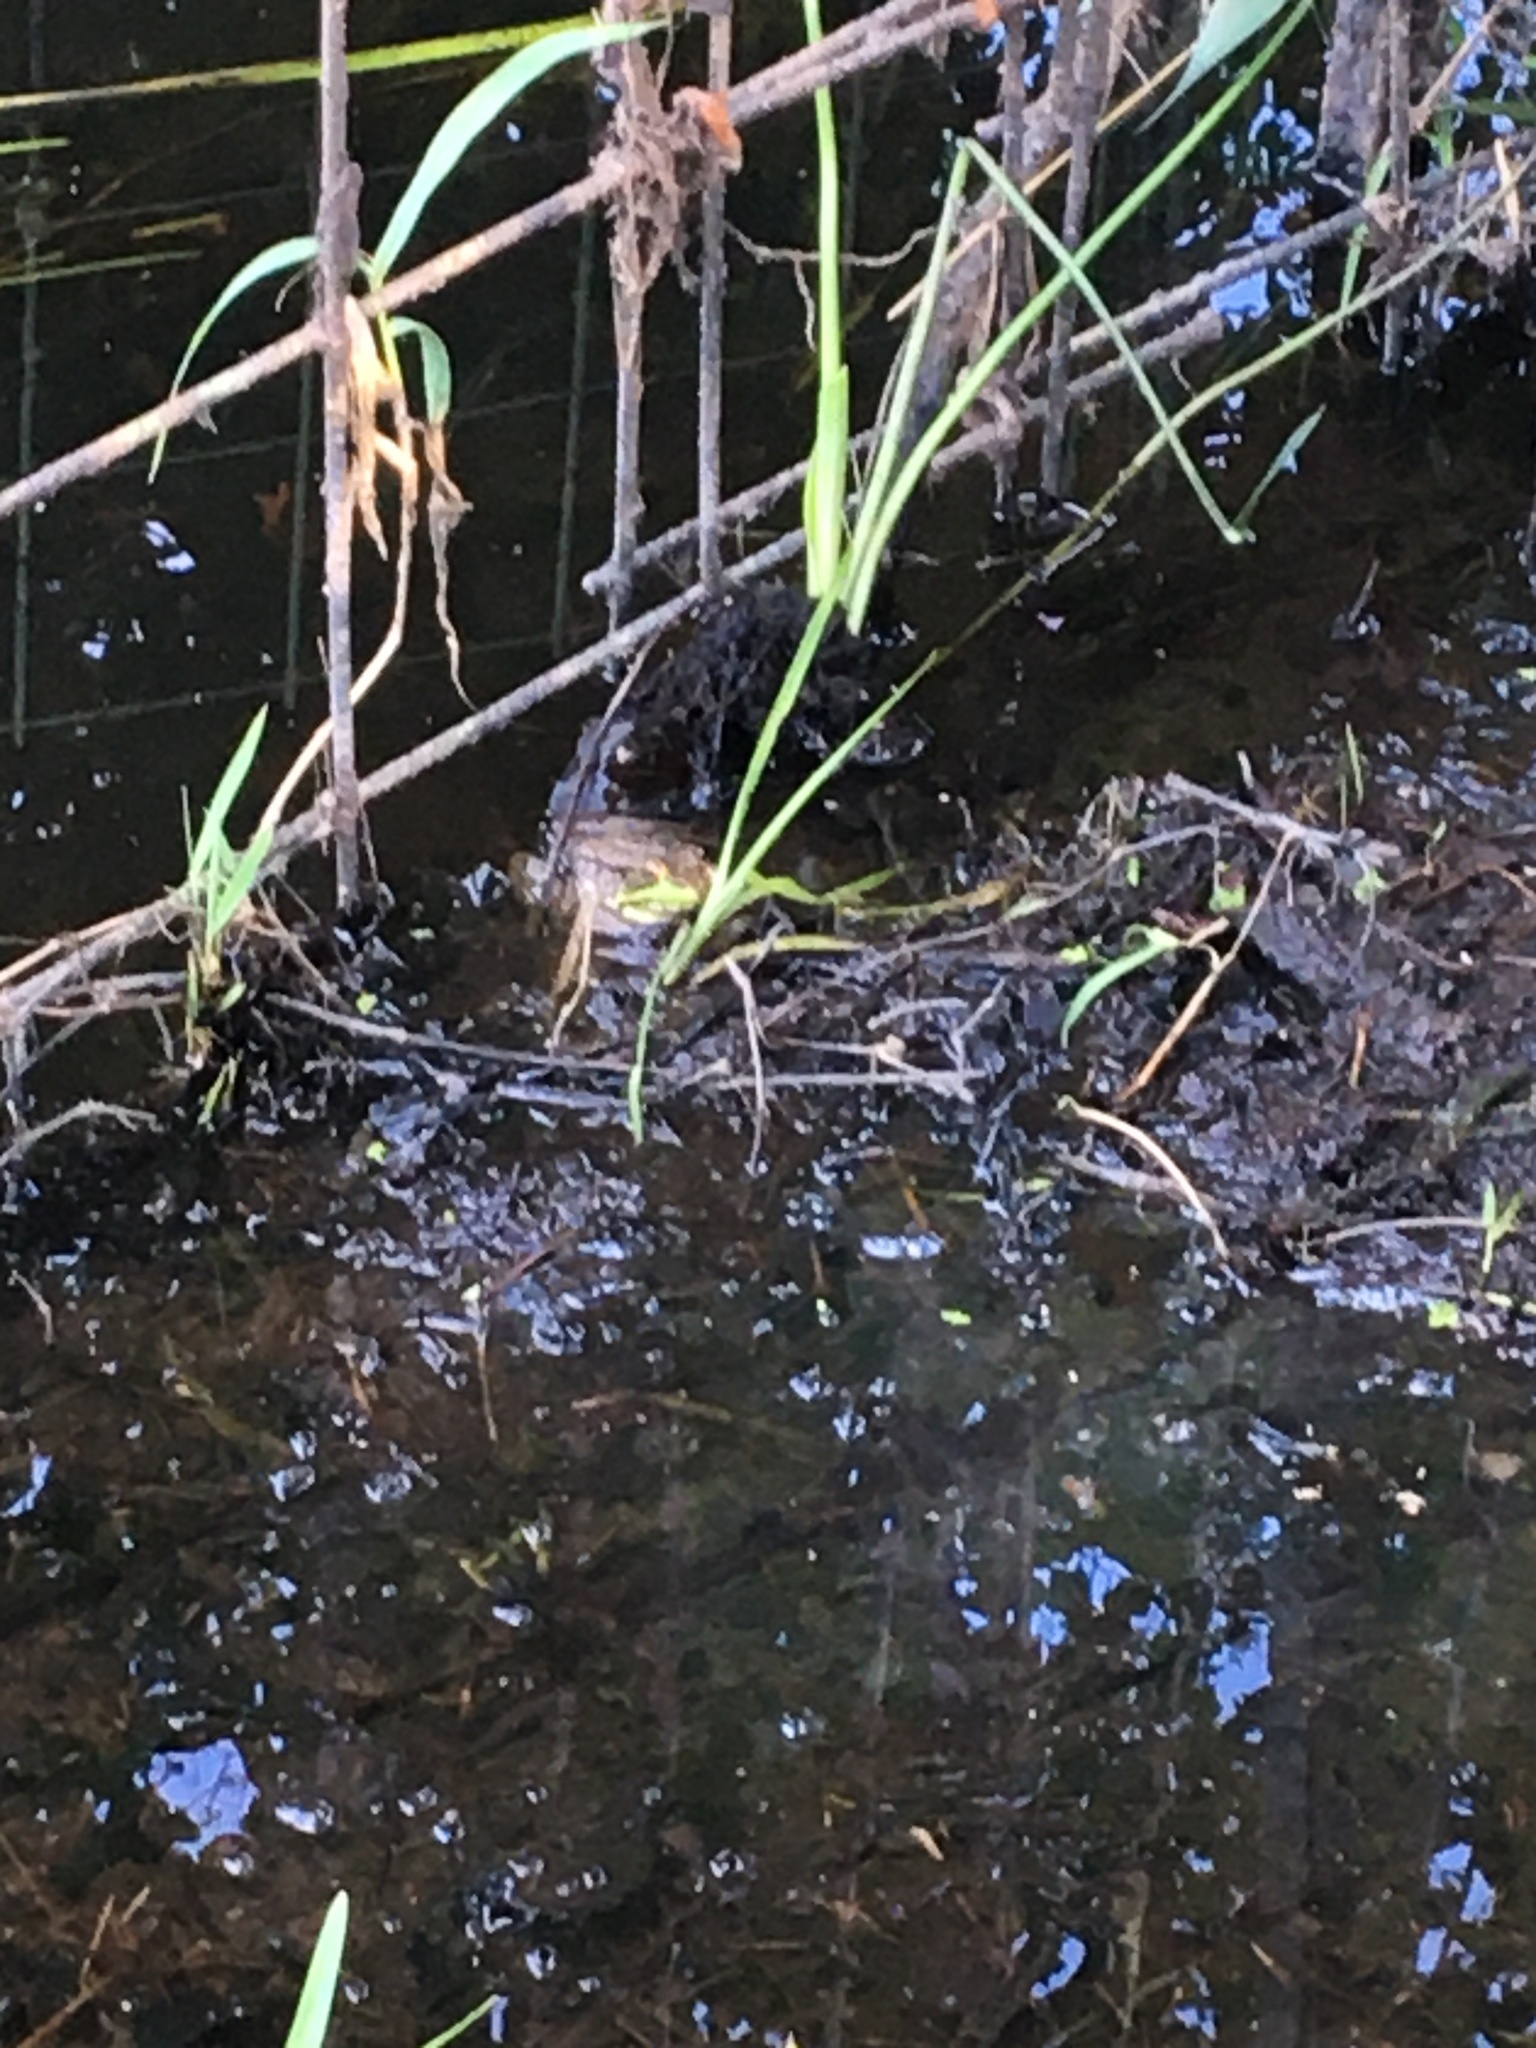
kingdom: Animalia
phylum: Chordata
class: Amphibia
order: Anura
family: Ranidae
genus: Lithobates
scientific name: Lithobates clamitans
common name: Green frog
